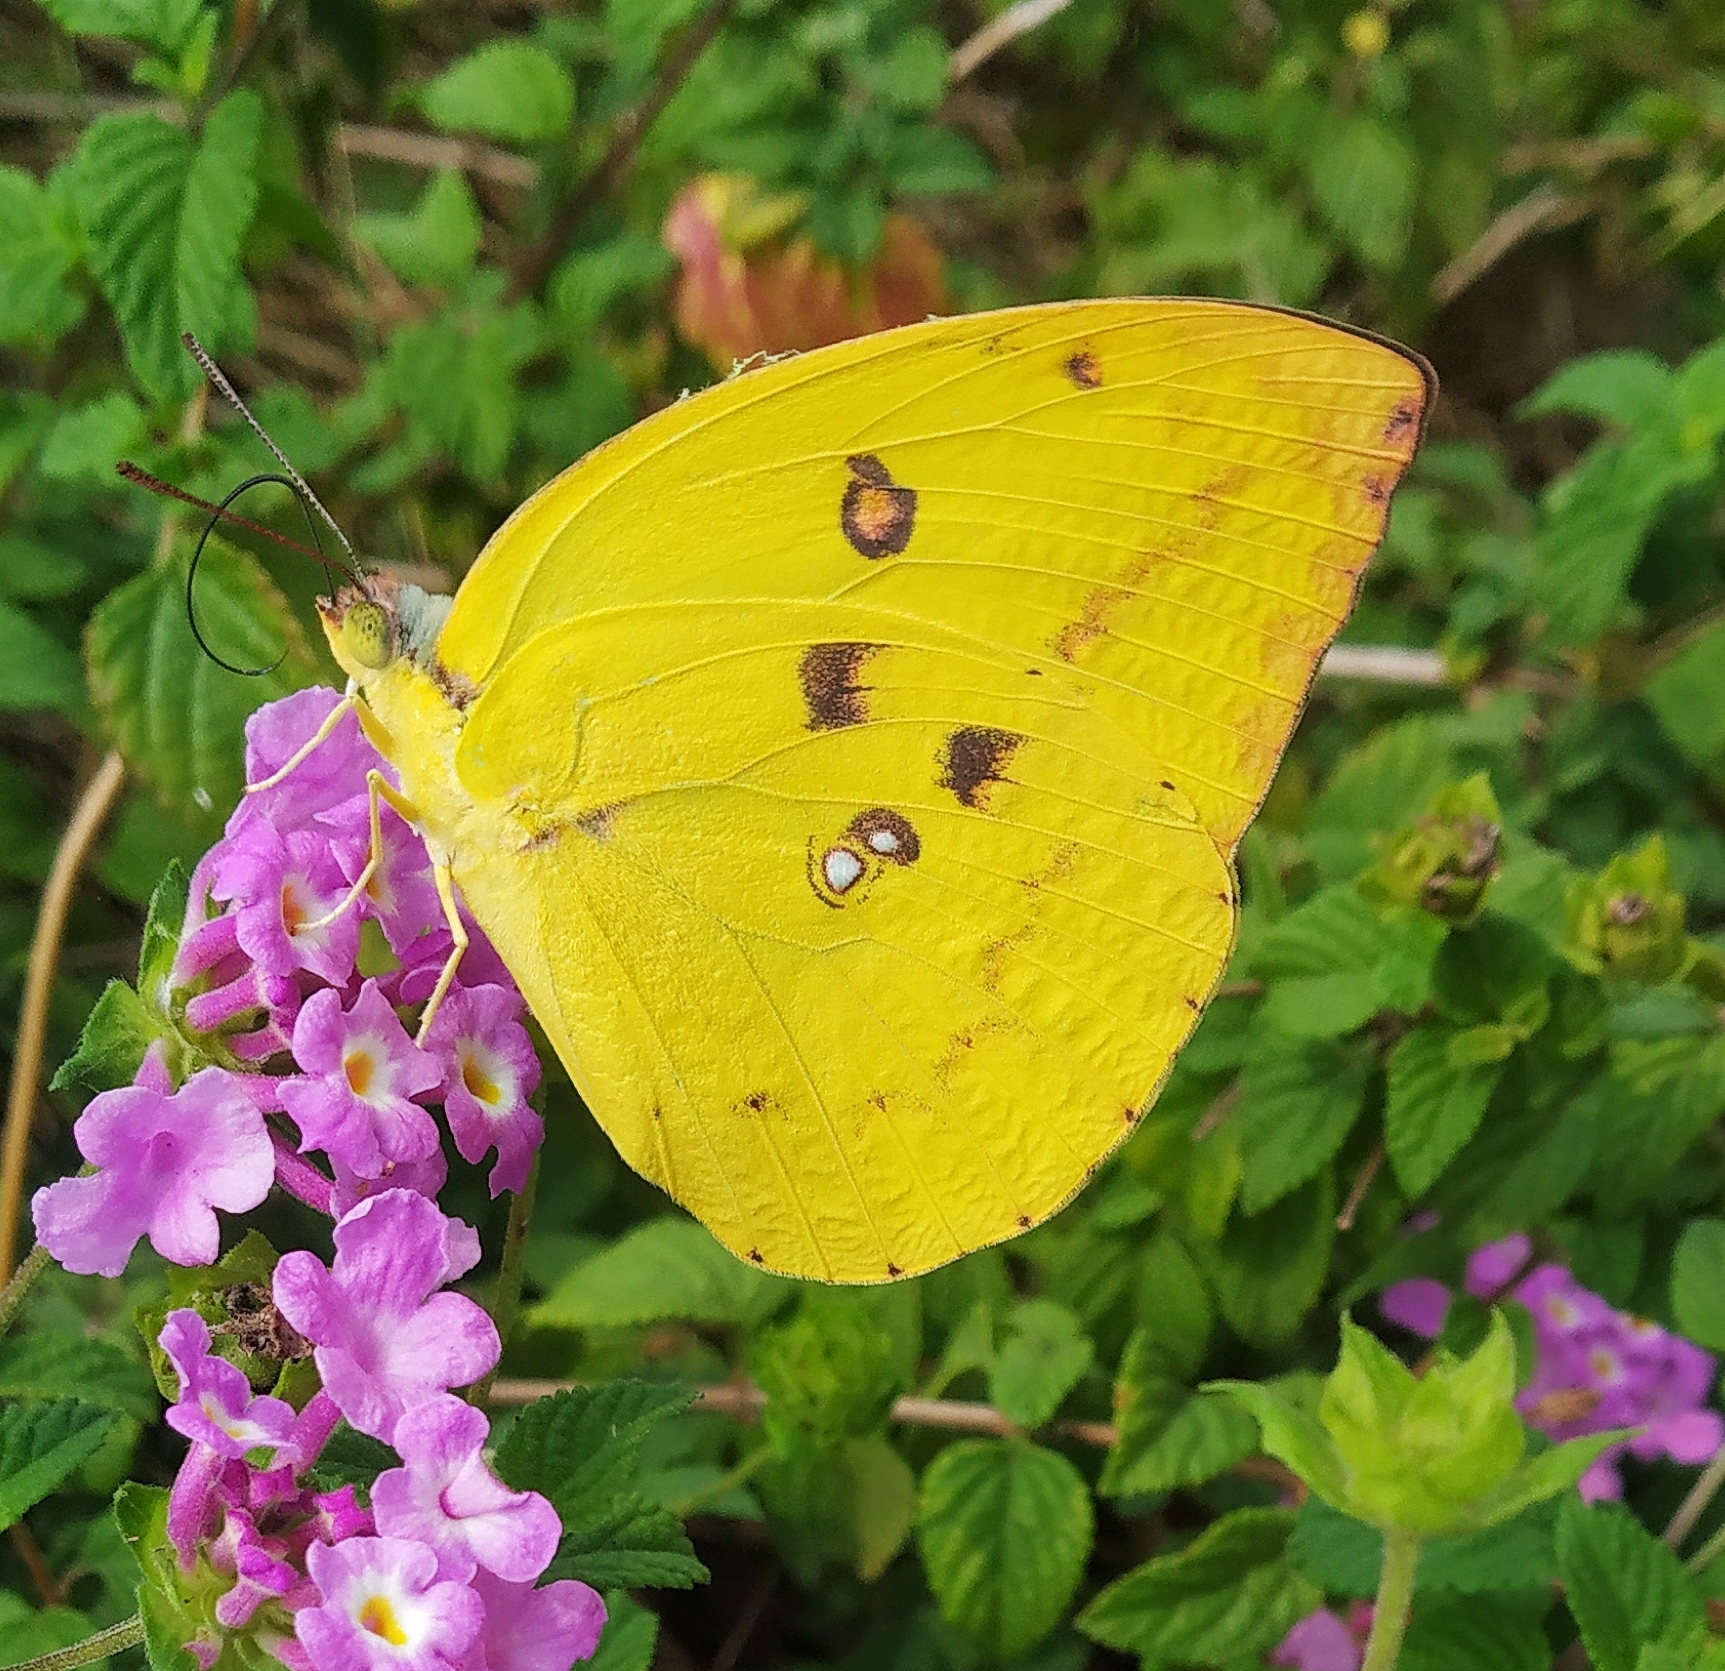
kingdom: Animalia
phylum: Arthropoda
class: Insecta
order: Lepidoptera
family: Pieridae
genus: Catopsilia
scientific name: Catopsilia pomona
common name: Common emigrant
